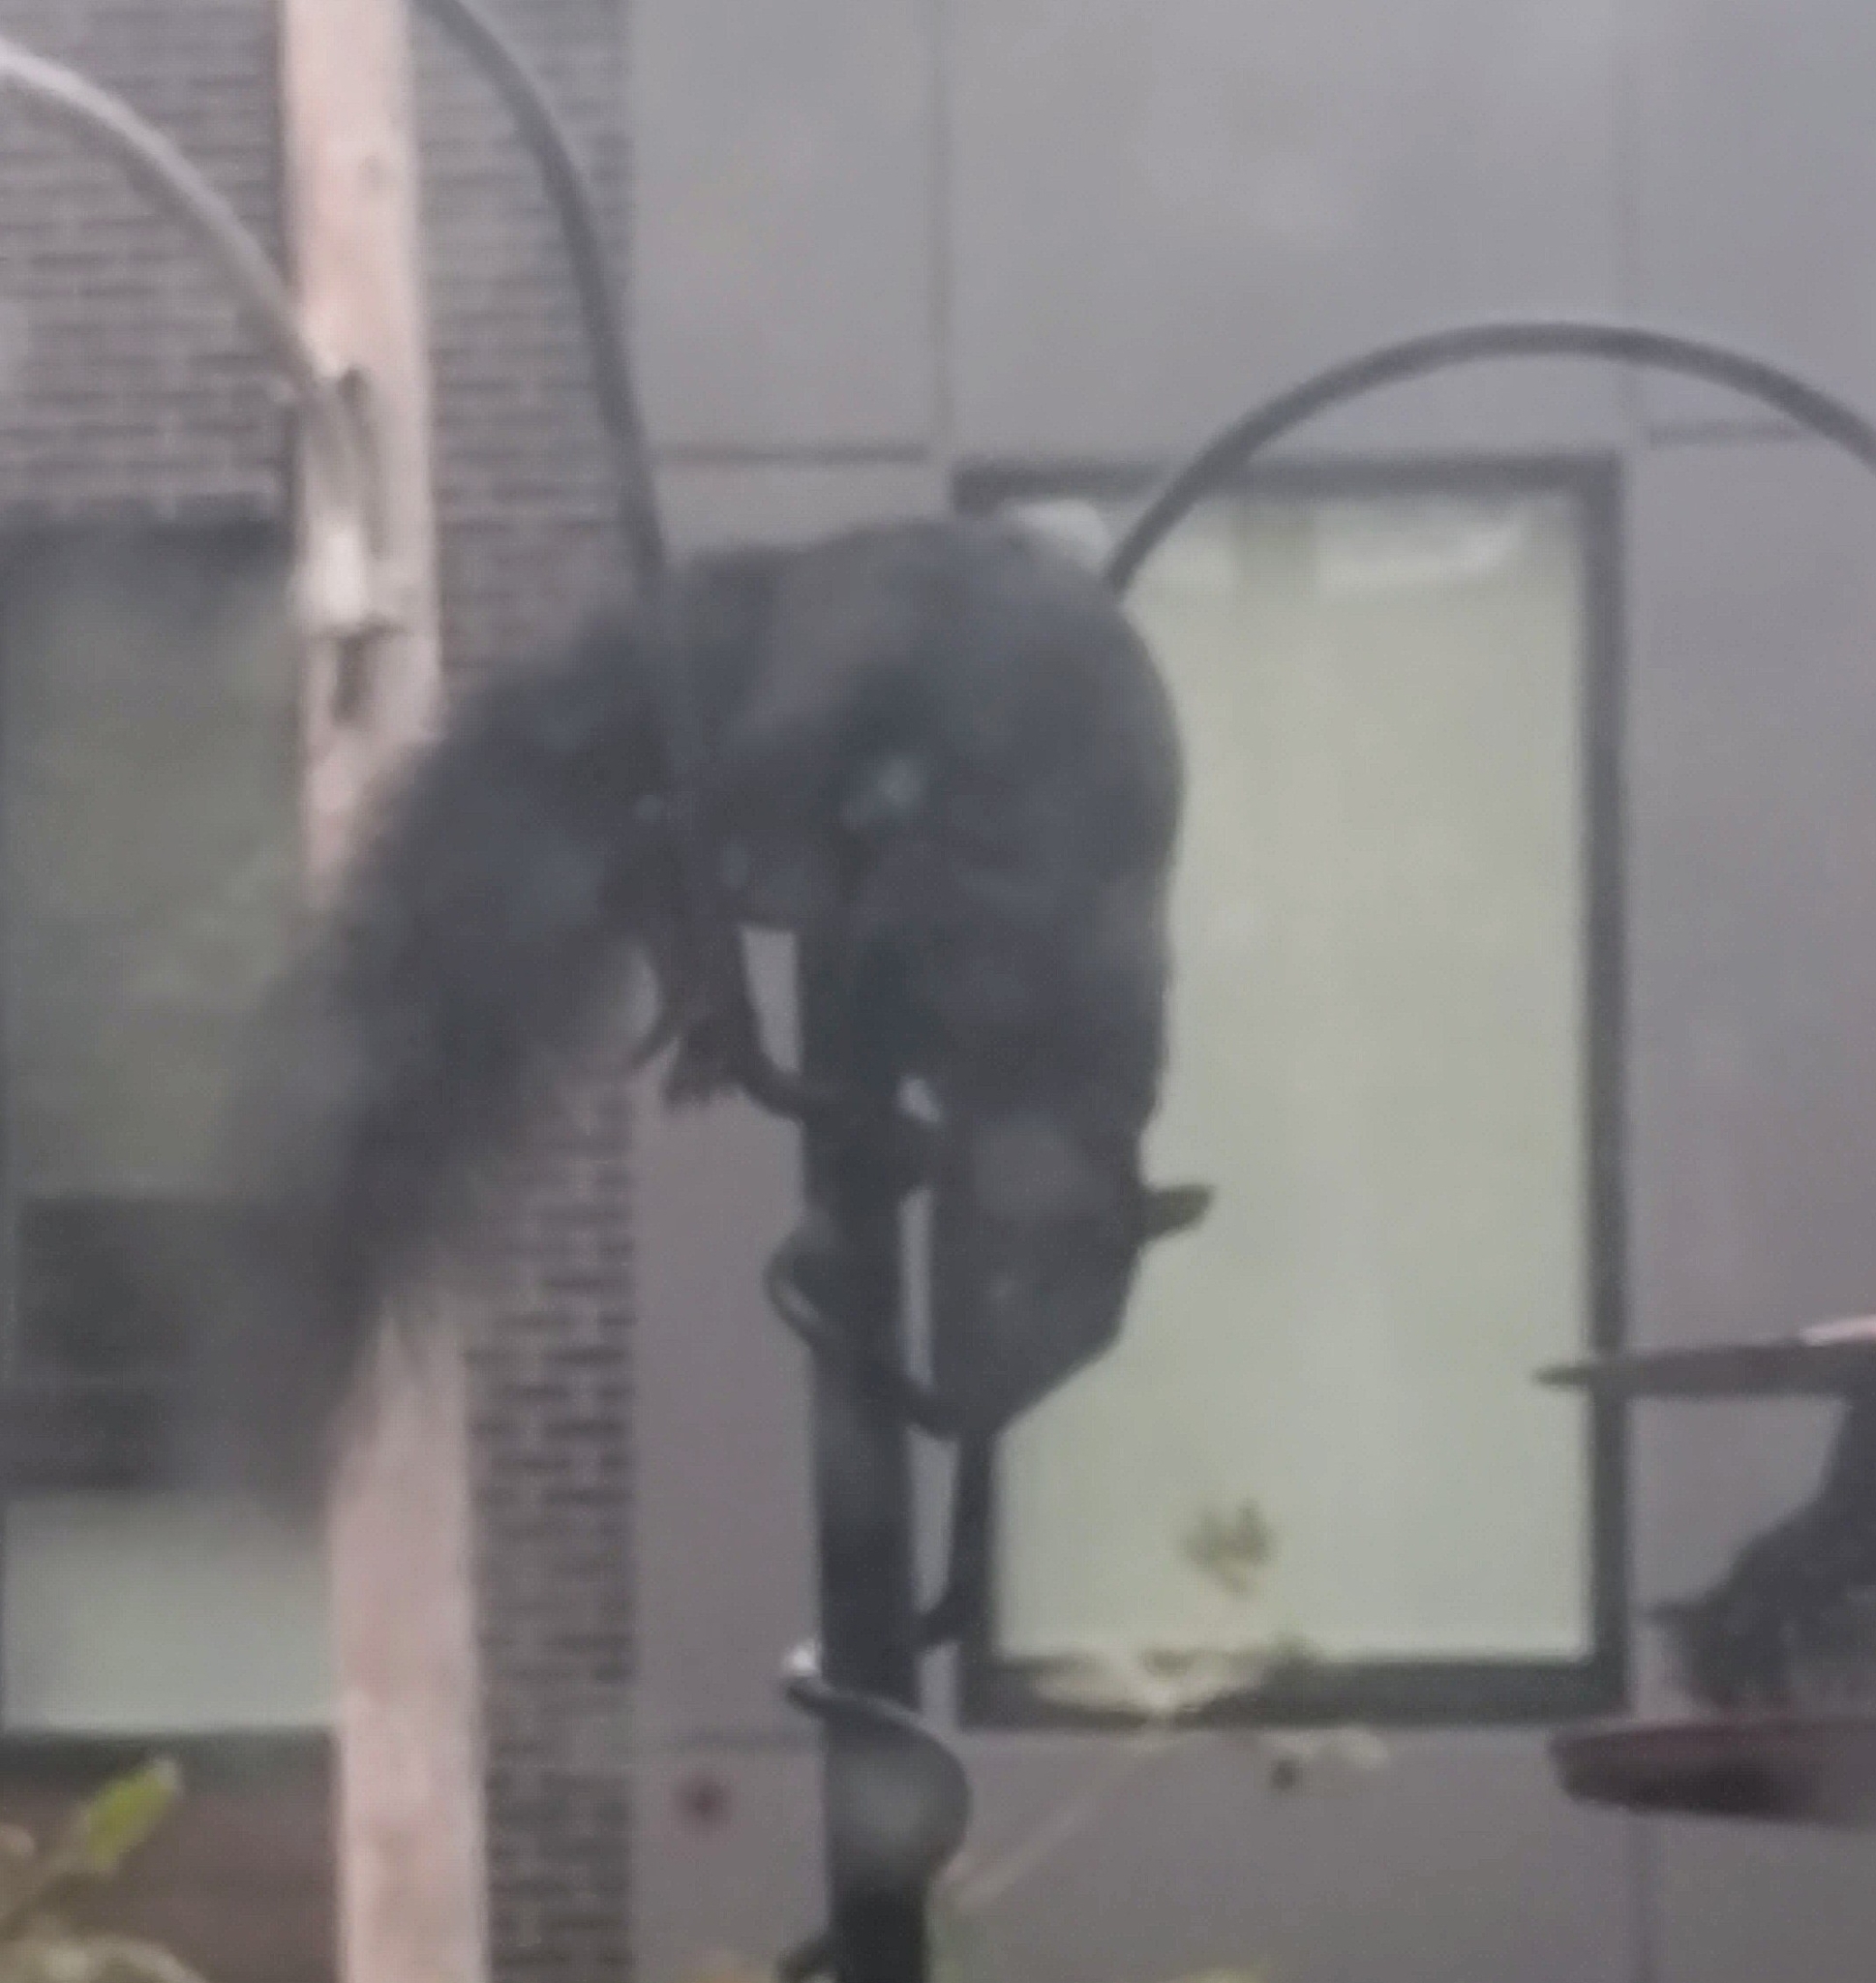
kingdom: Animalia
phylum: Chordata
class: Mammalia
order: Rodentia
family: Sciuridae
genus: Sciurus
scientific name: Sciurus carolinensis
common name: Eastern gray squirrel
